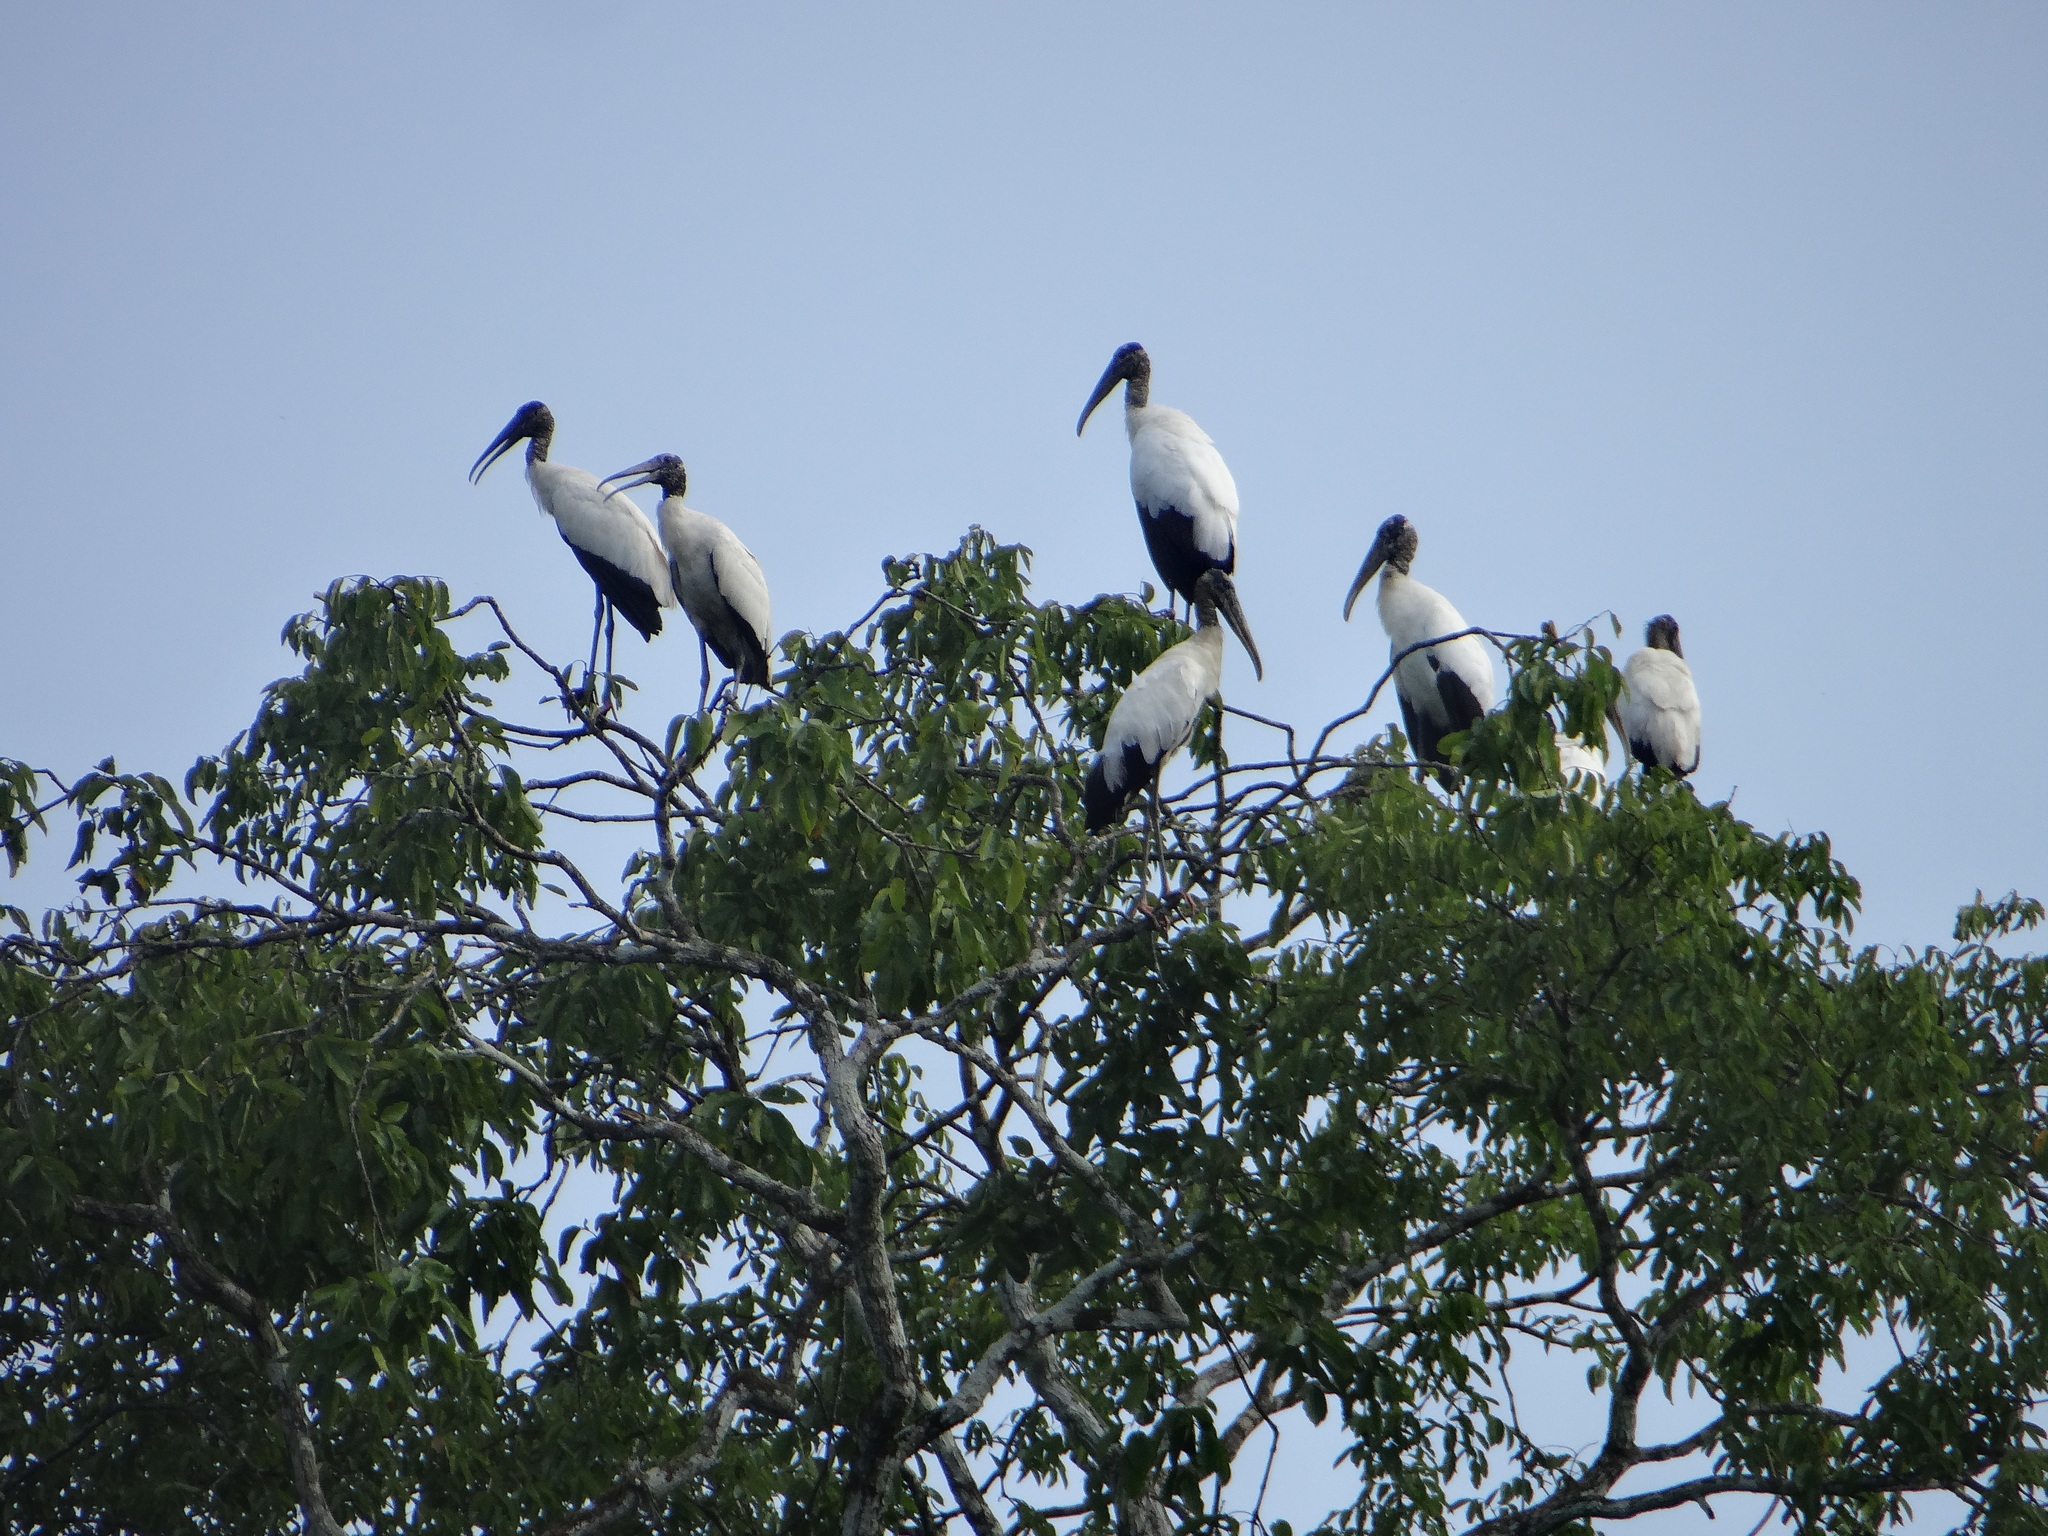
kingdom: Animalia
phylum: Chordata
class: Aves
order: Ciconiiformes
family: Ciconiidae
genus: Mycteria
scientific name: Mycteria americana
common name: Wood stork
